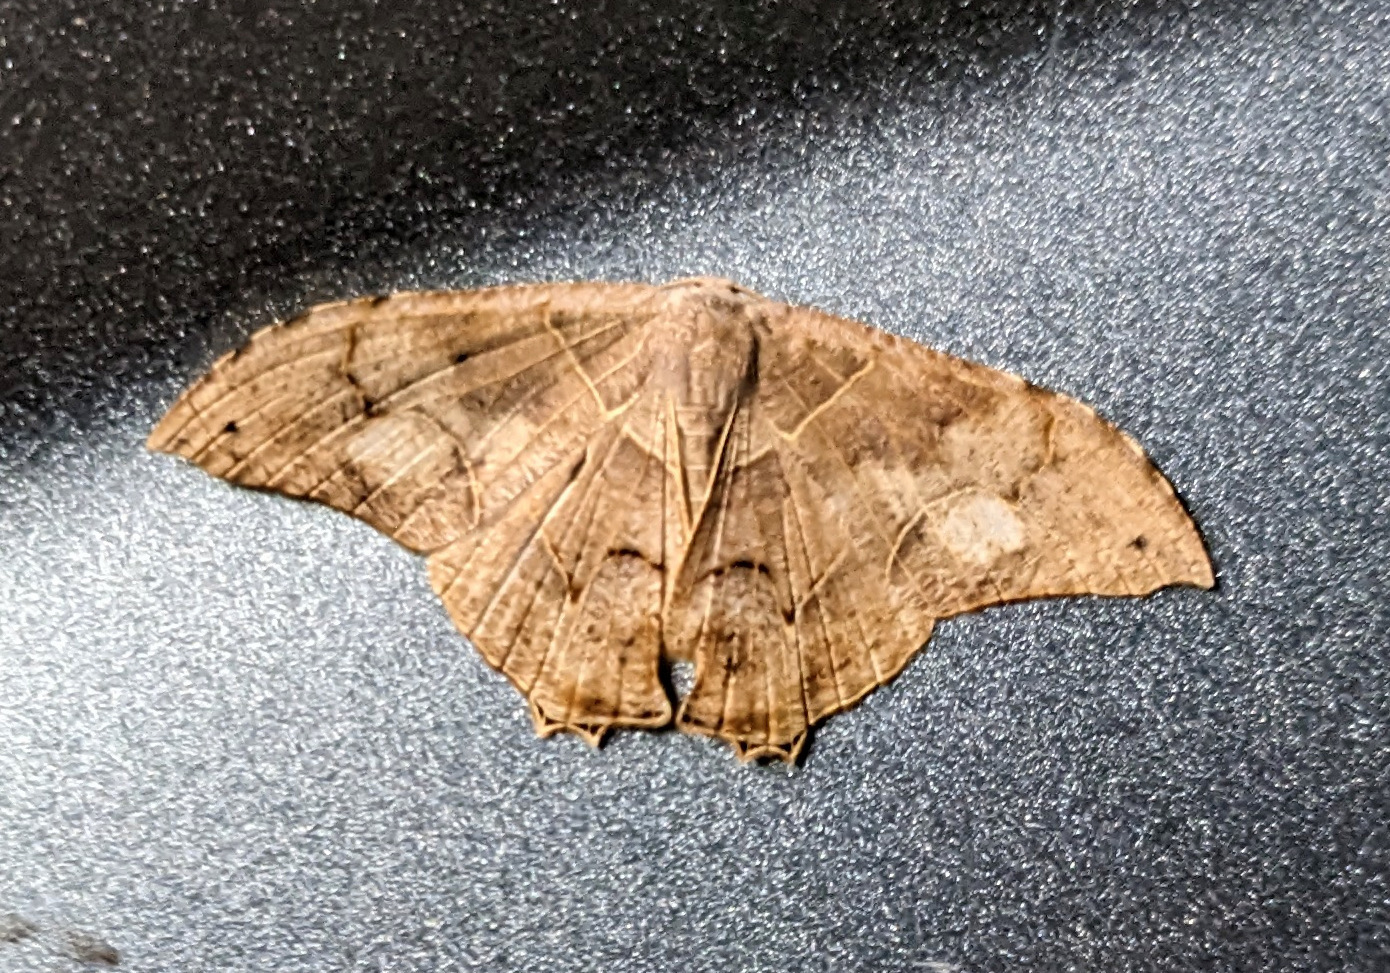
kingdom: Animalia
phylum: Arthropoda
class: Insecta
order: Lepidoptera
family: Uraniidae
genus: Syngria
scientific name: Syngria druidaria
